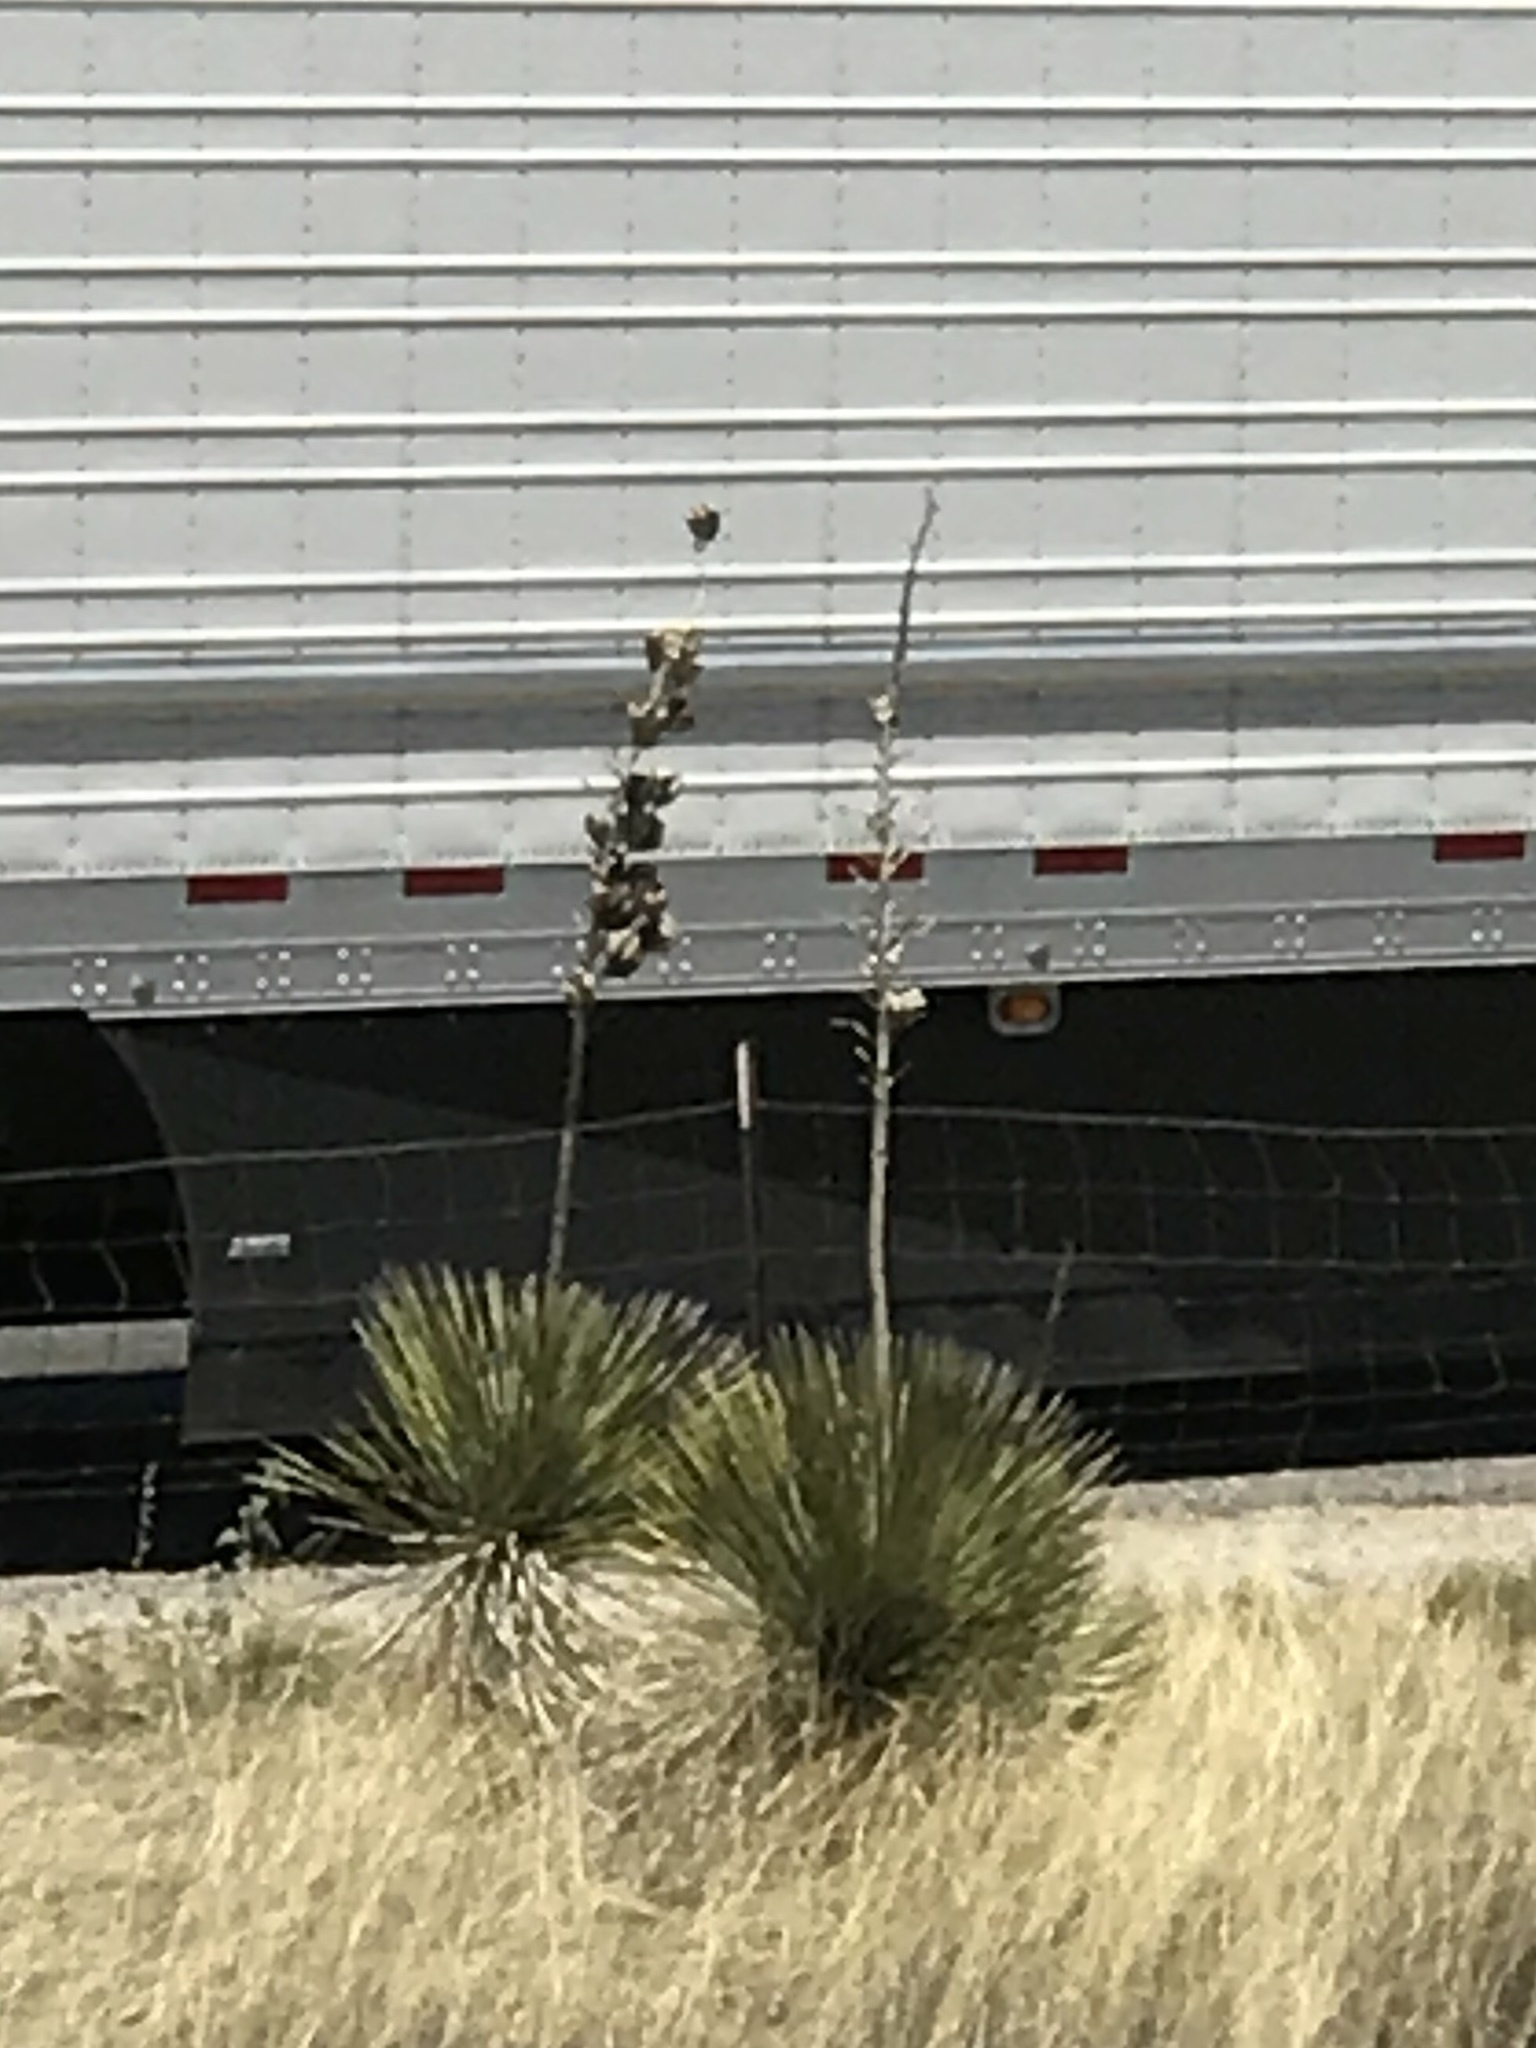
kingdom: Plantae
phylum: Tracheophyta
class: Liliopsida
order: Asparagales
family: Asparagaceae
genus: Yucca
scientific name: Yucca elata
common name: Palmella
